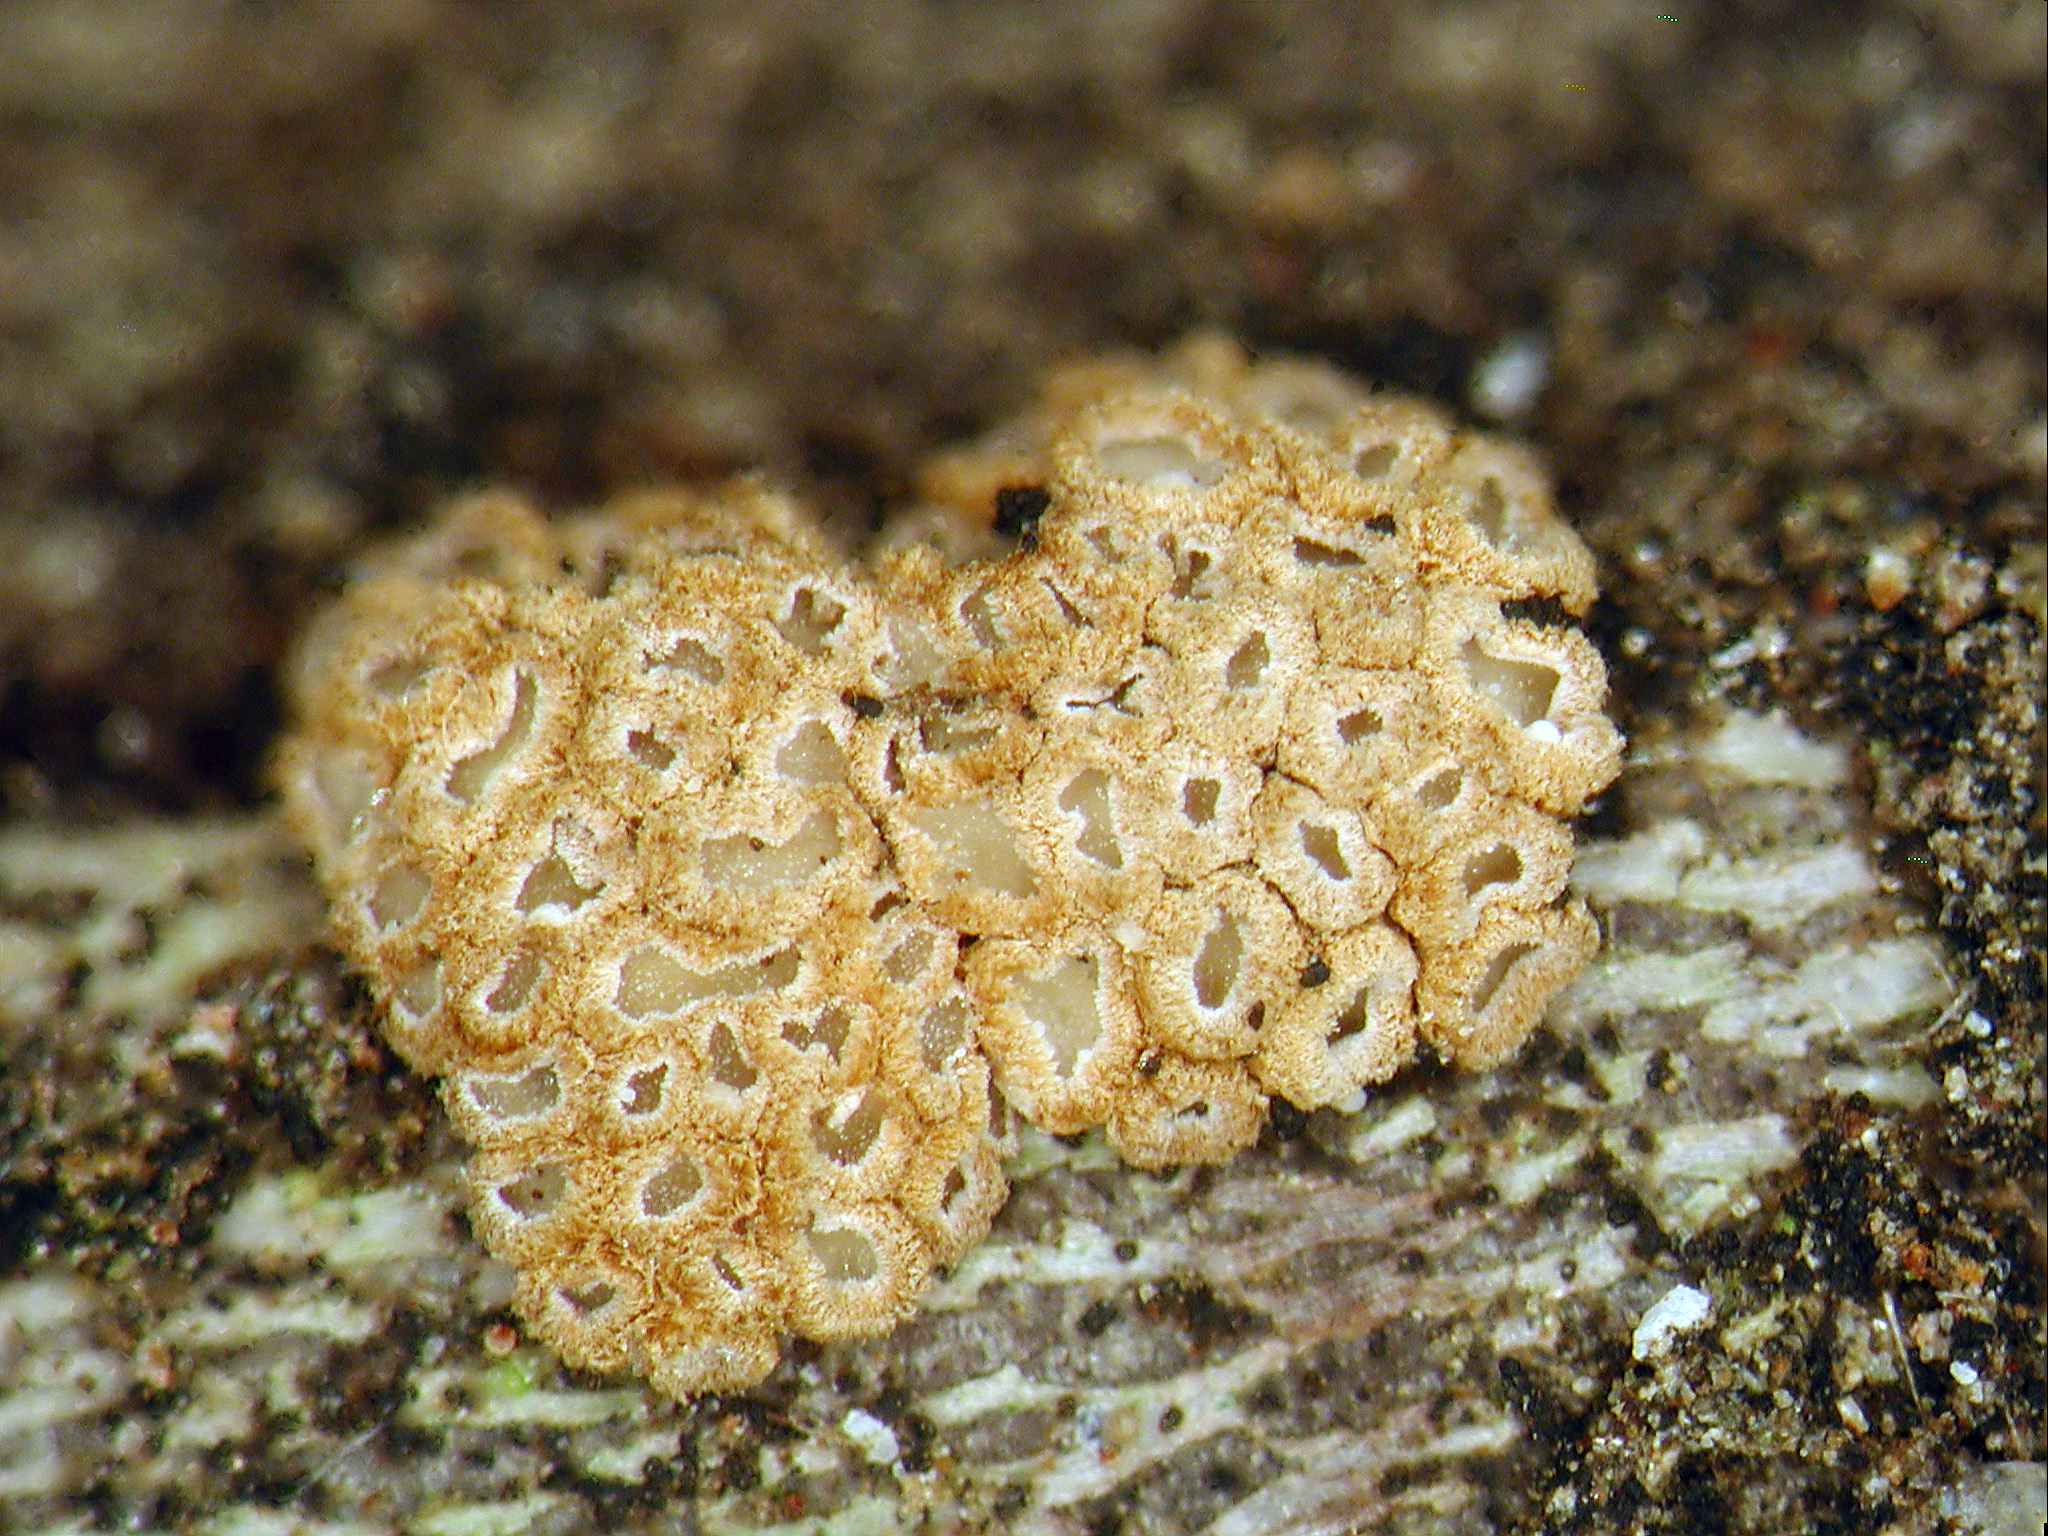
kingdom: Fungi
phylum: Basidiomycota
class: Agaricomycetes
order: Agaricales
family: Niaceae
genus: Merismodes
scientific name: Merismodes fasciculata
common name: Crowded cuplet
